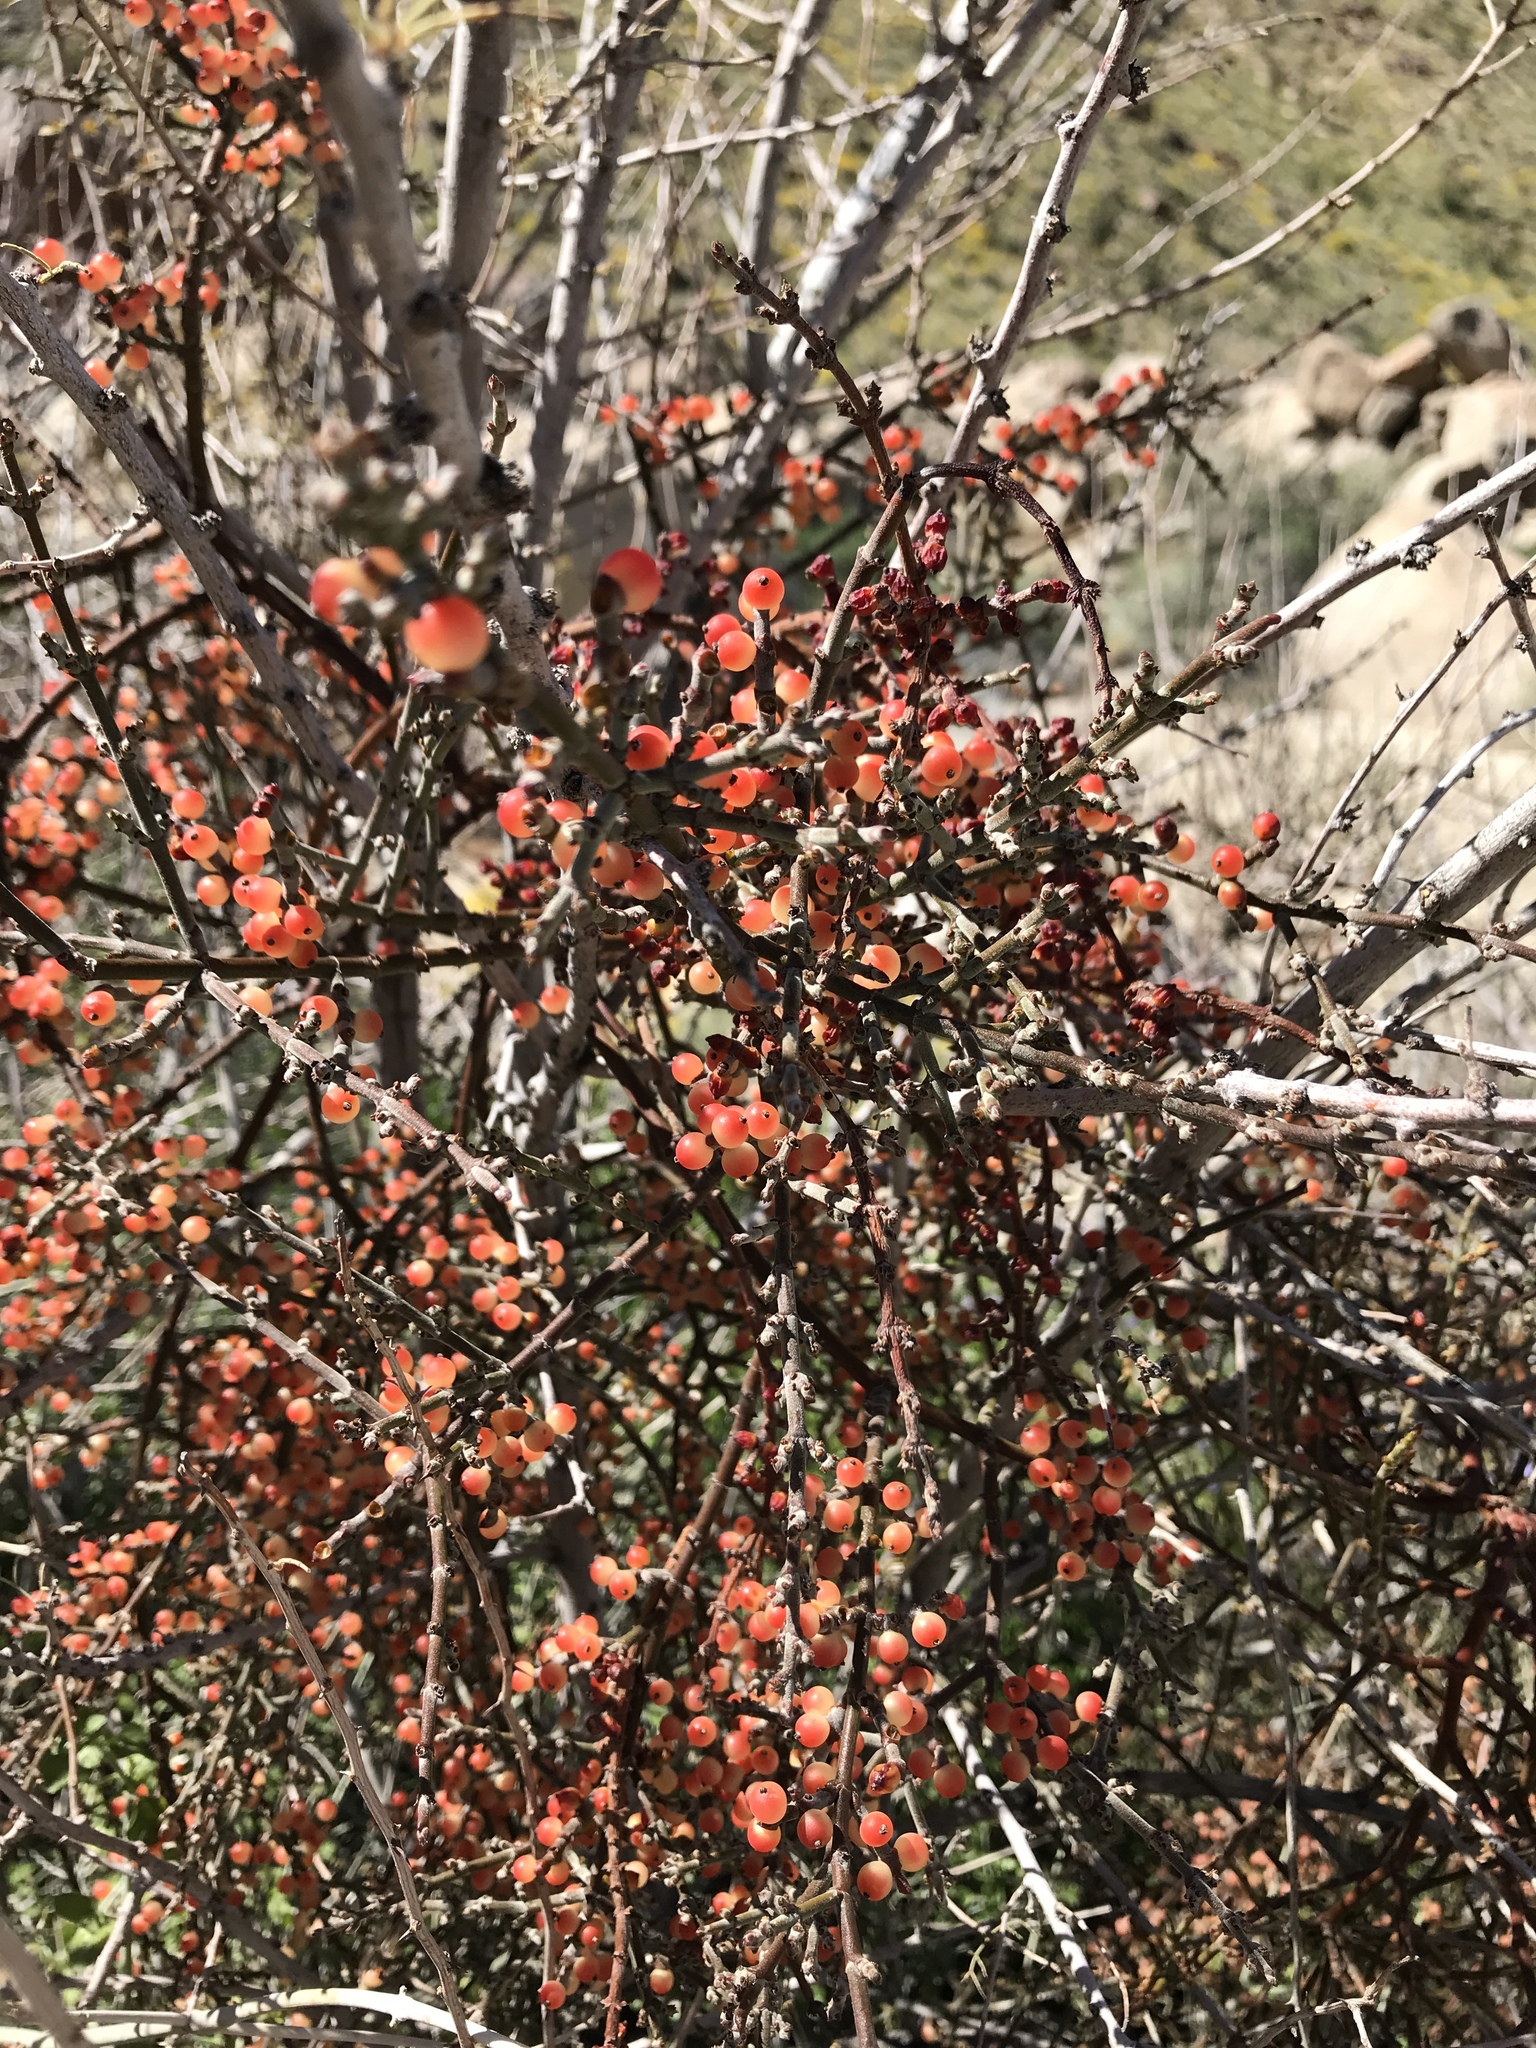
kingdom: Plantae
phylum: Tracheophyta
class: Magnoliopsida
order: Santalales
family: Viscaceae
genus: Phoradendron
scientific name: Phoradendron californicum
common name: Acacia mistletoe
